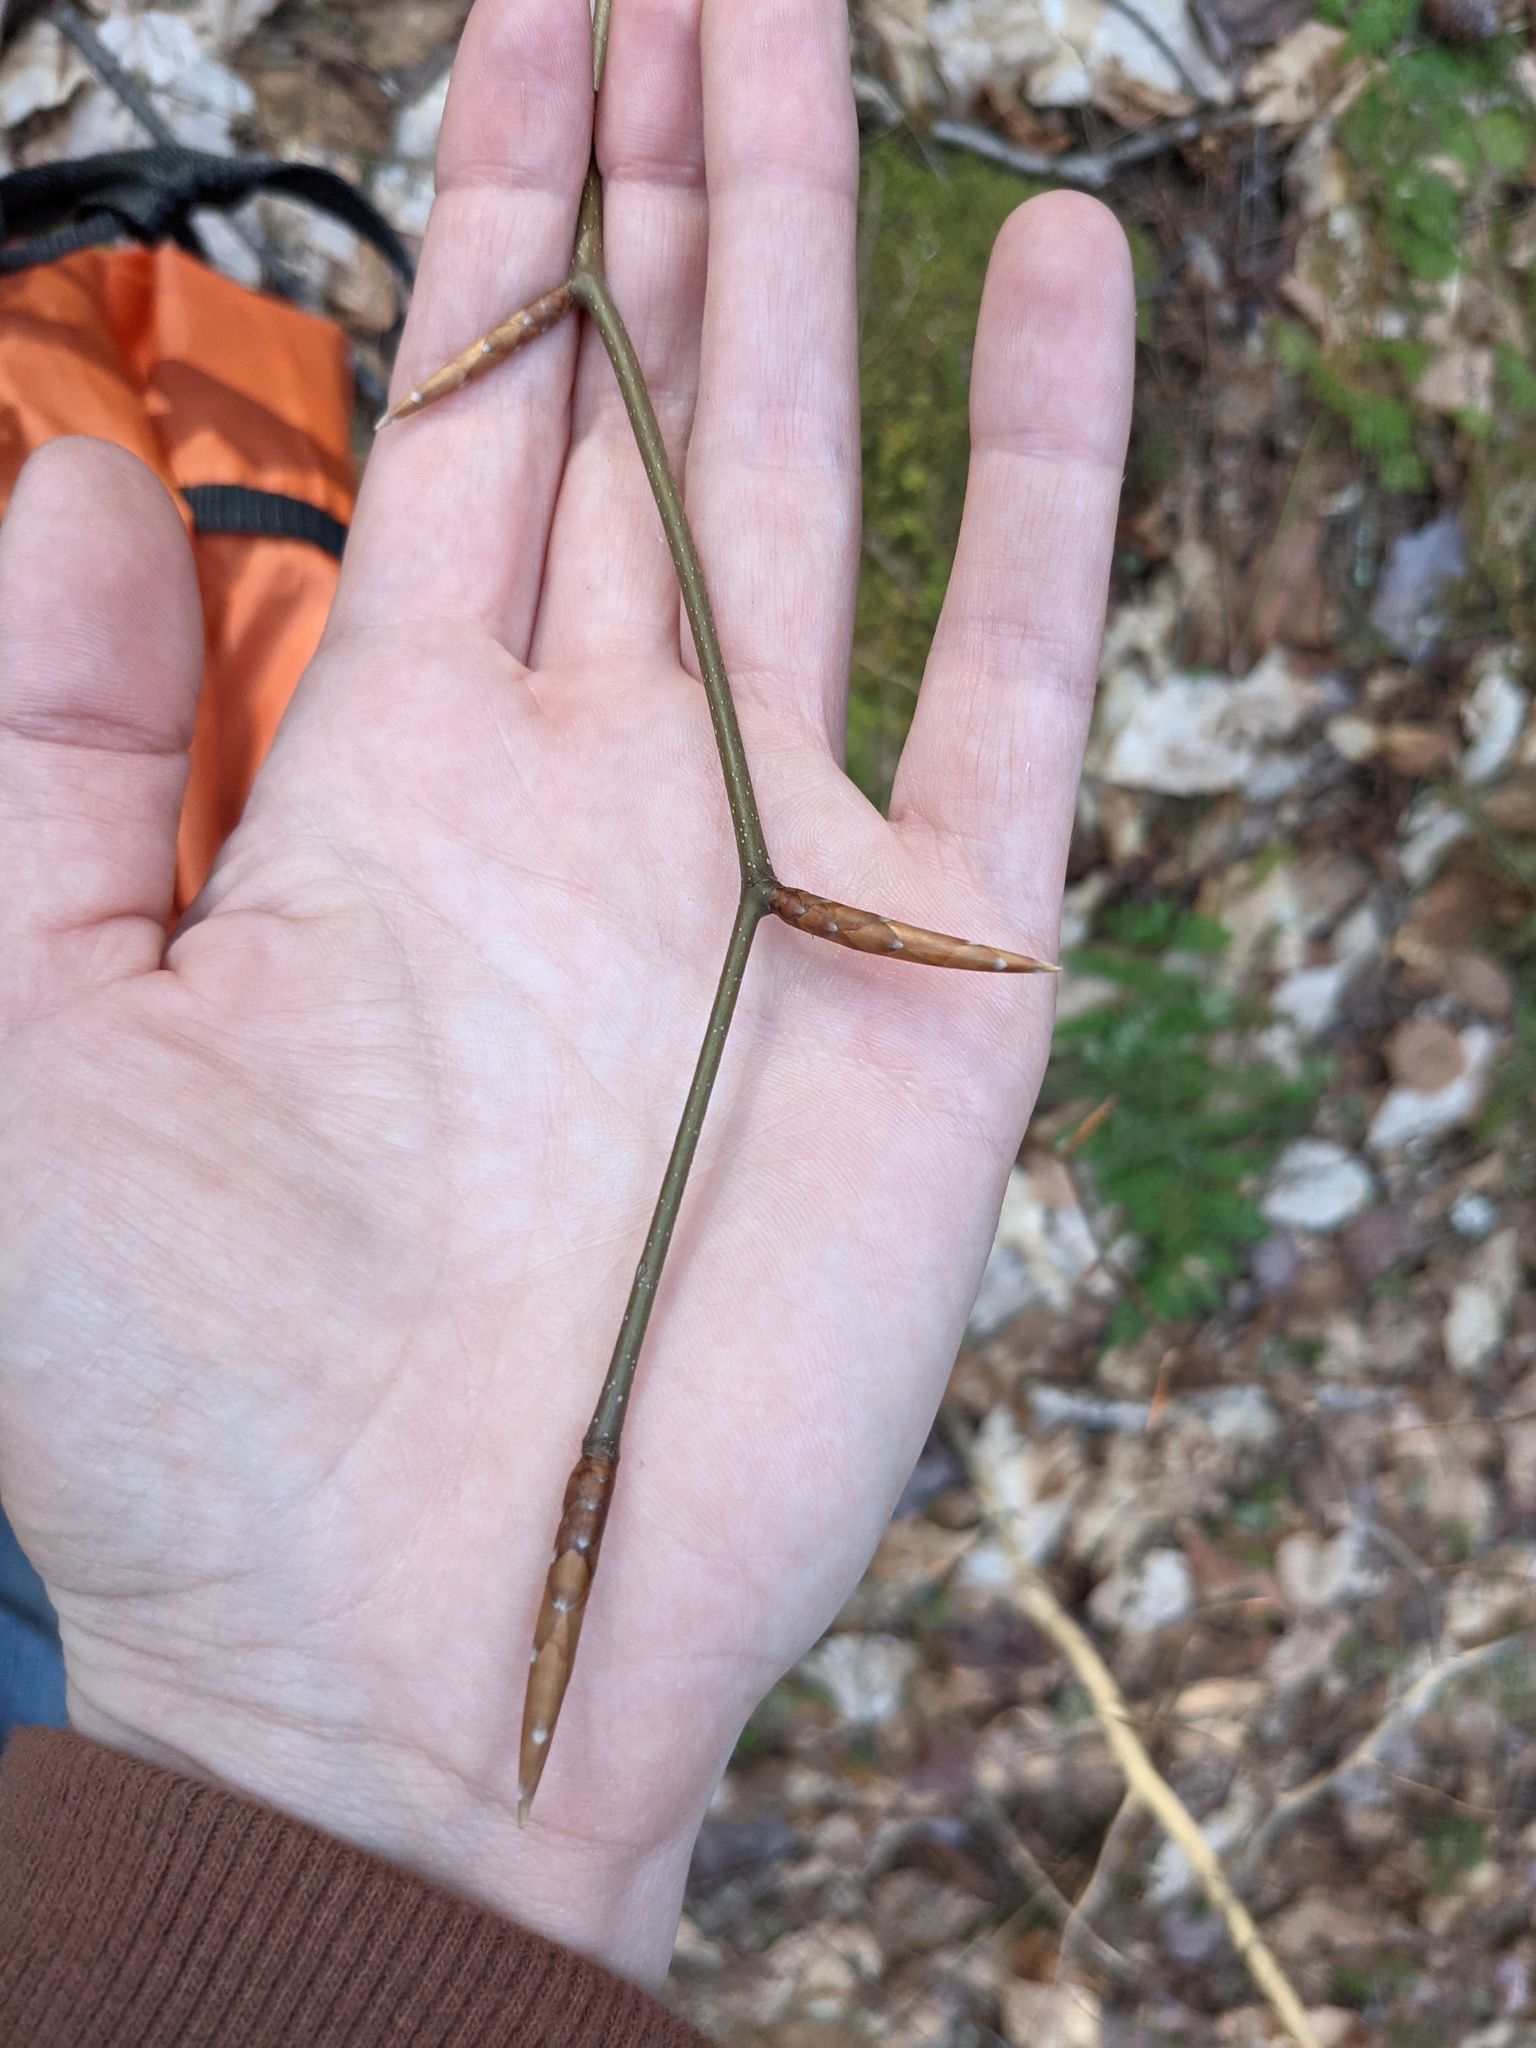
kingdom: Plantae
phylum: Tracheophyta
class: Magnoliopsida
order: Fagales
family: Fagaceae
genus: Fagus
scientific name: Fagus grandifolia
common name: American beech
